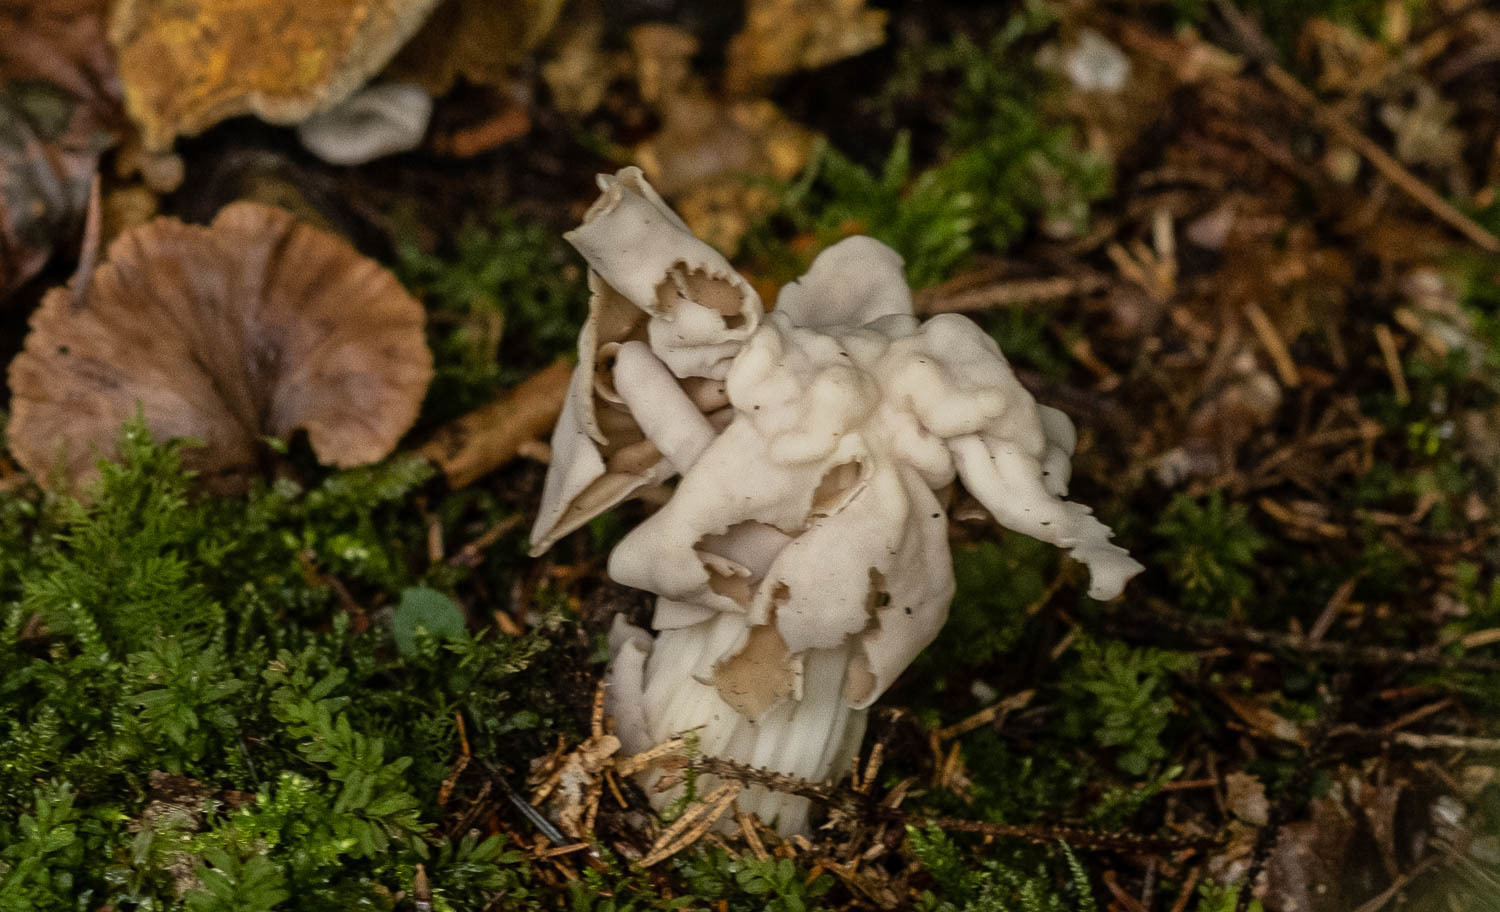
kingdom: Fungi
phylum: Ascomycota
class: Pezizomycetes
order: Pezizales
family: Helvellaceae
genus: Helvella
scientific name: Helvella crispa
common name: White saddle
